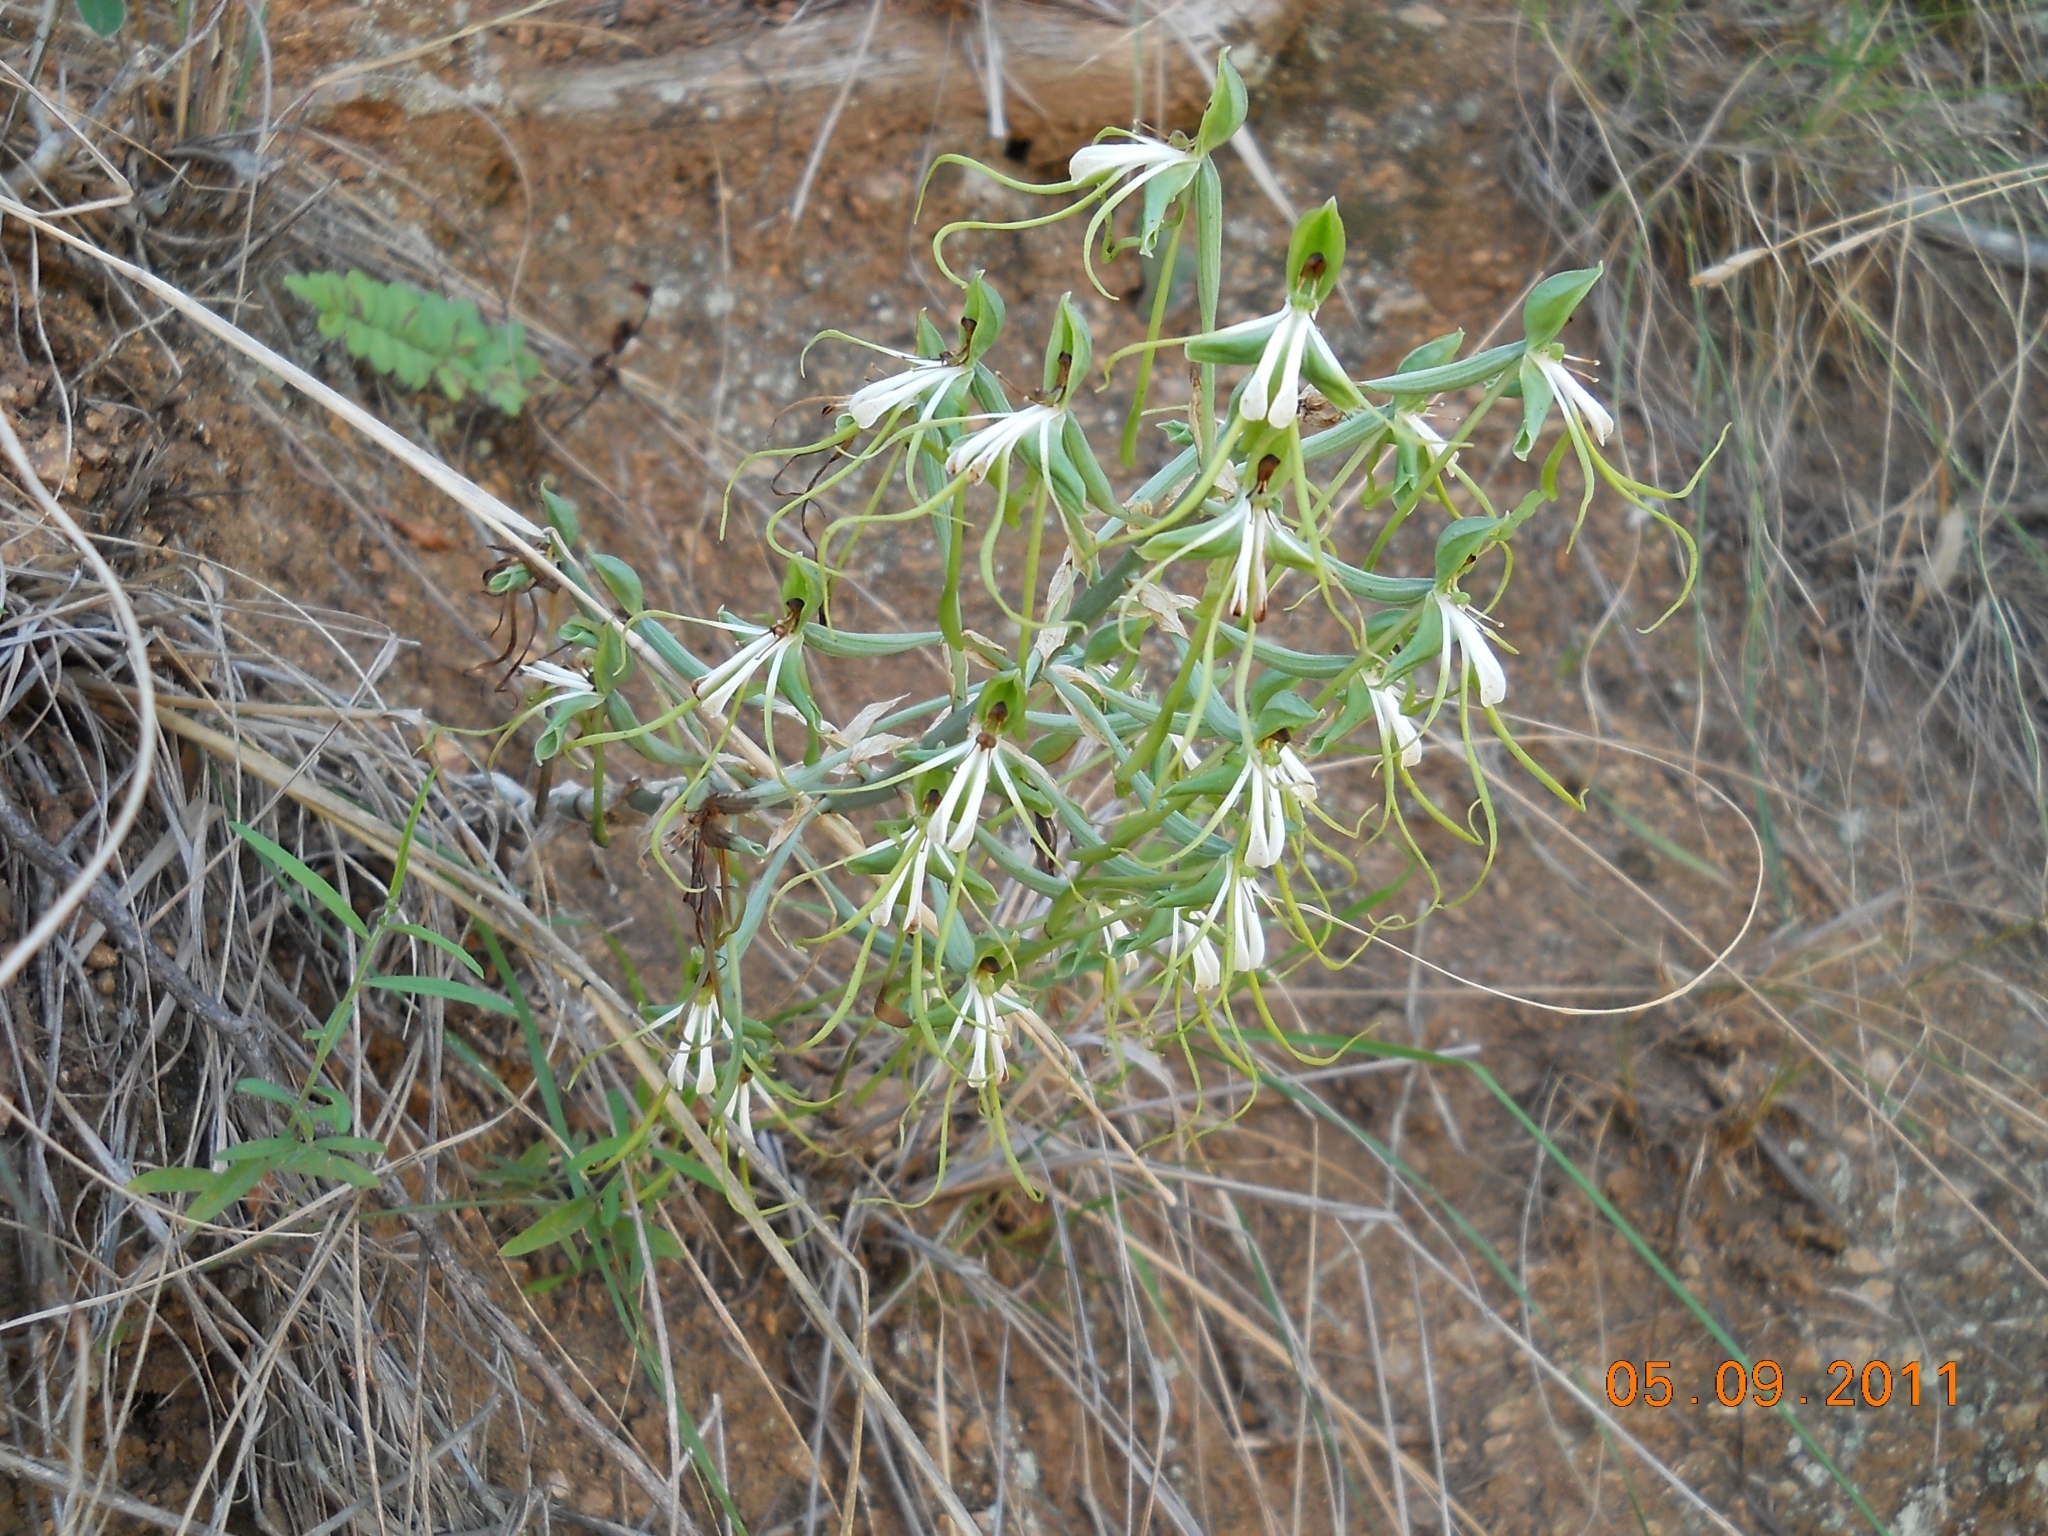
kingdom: Plantae
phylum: Tracheophyta
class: Liliopsida
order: Asparagales
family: Orchidaceae
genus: Bonatea
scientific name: Bonatea porrecta
